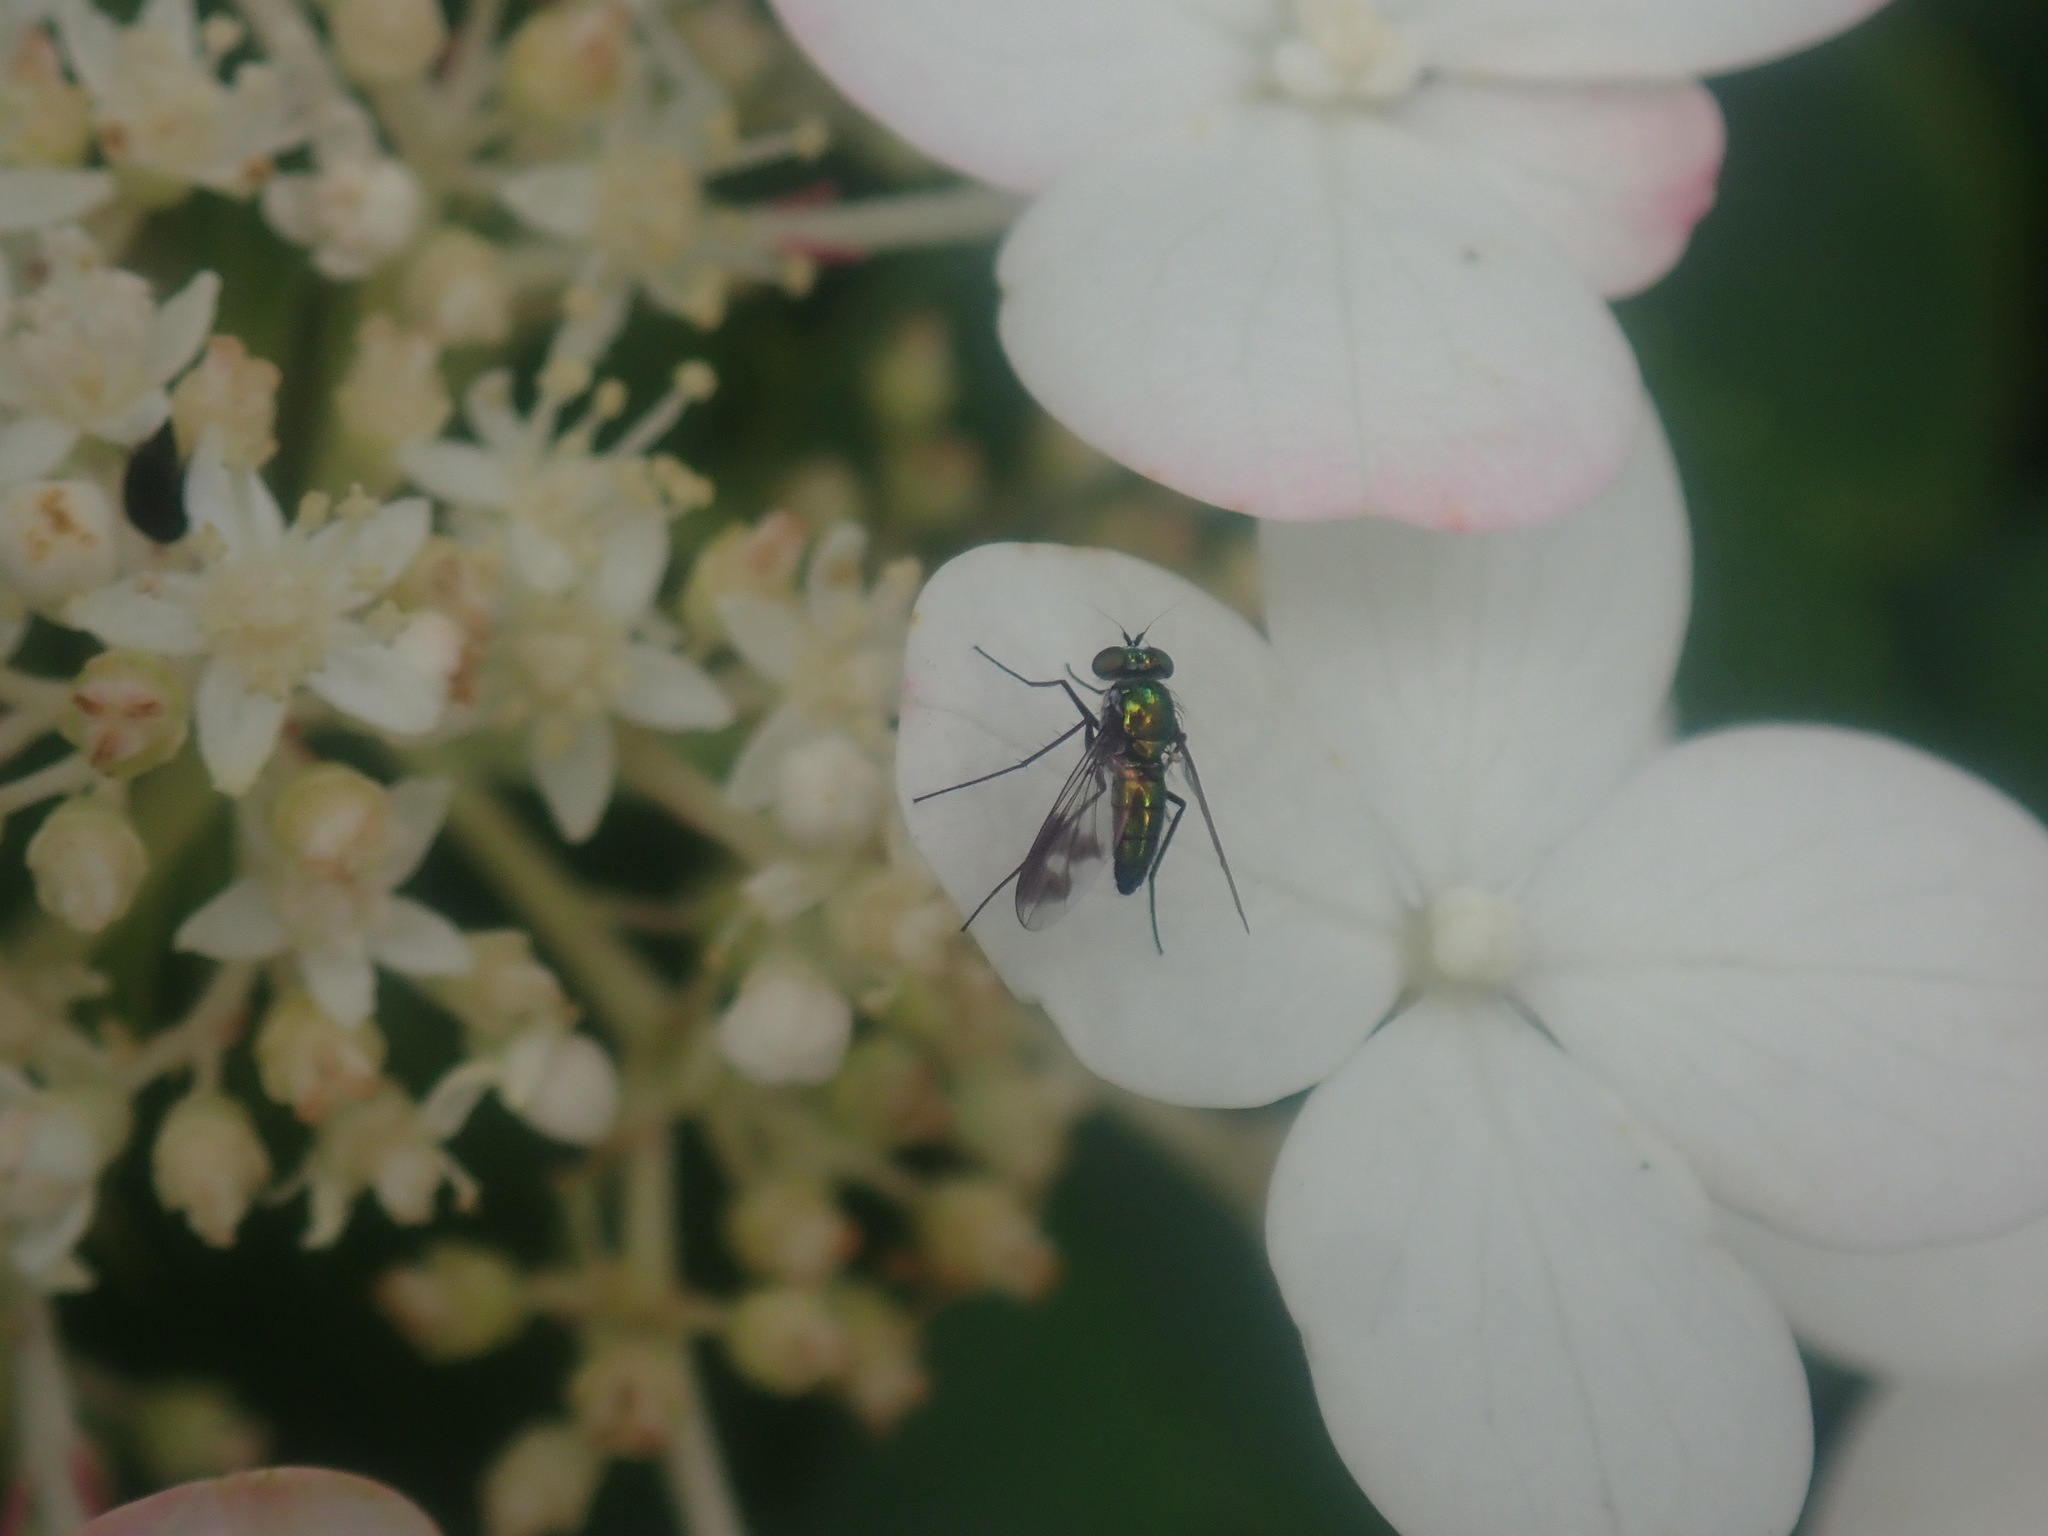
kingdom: Animalia
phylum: Arthropoda
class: Insecta
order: Diptera
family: Dolichopodidae
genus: Condylostylus
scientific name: Condylostylus patibulatus
